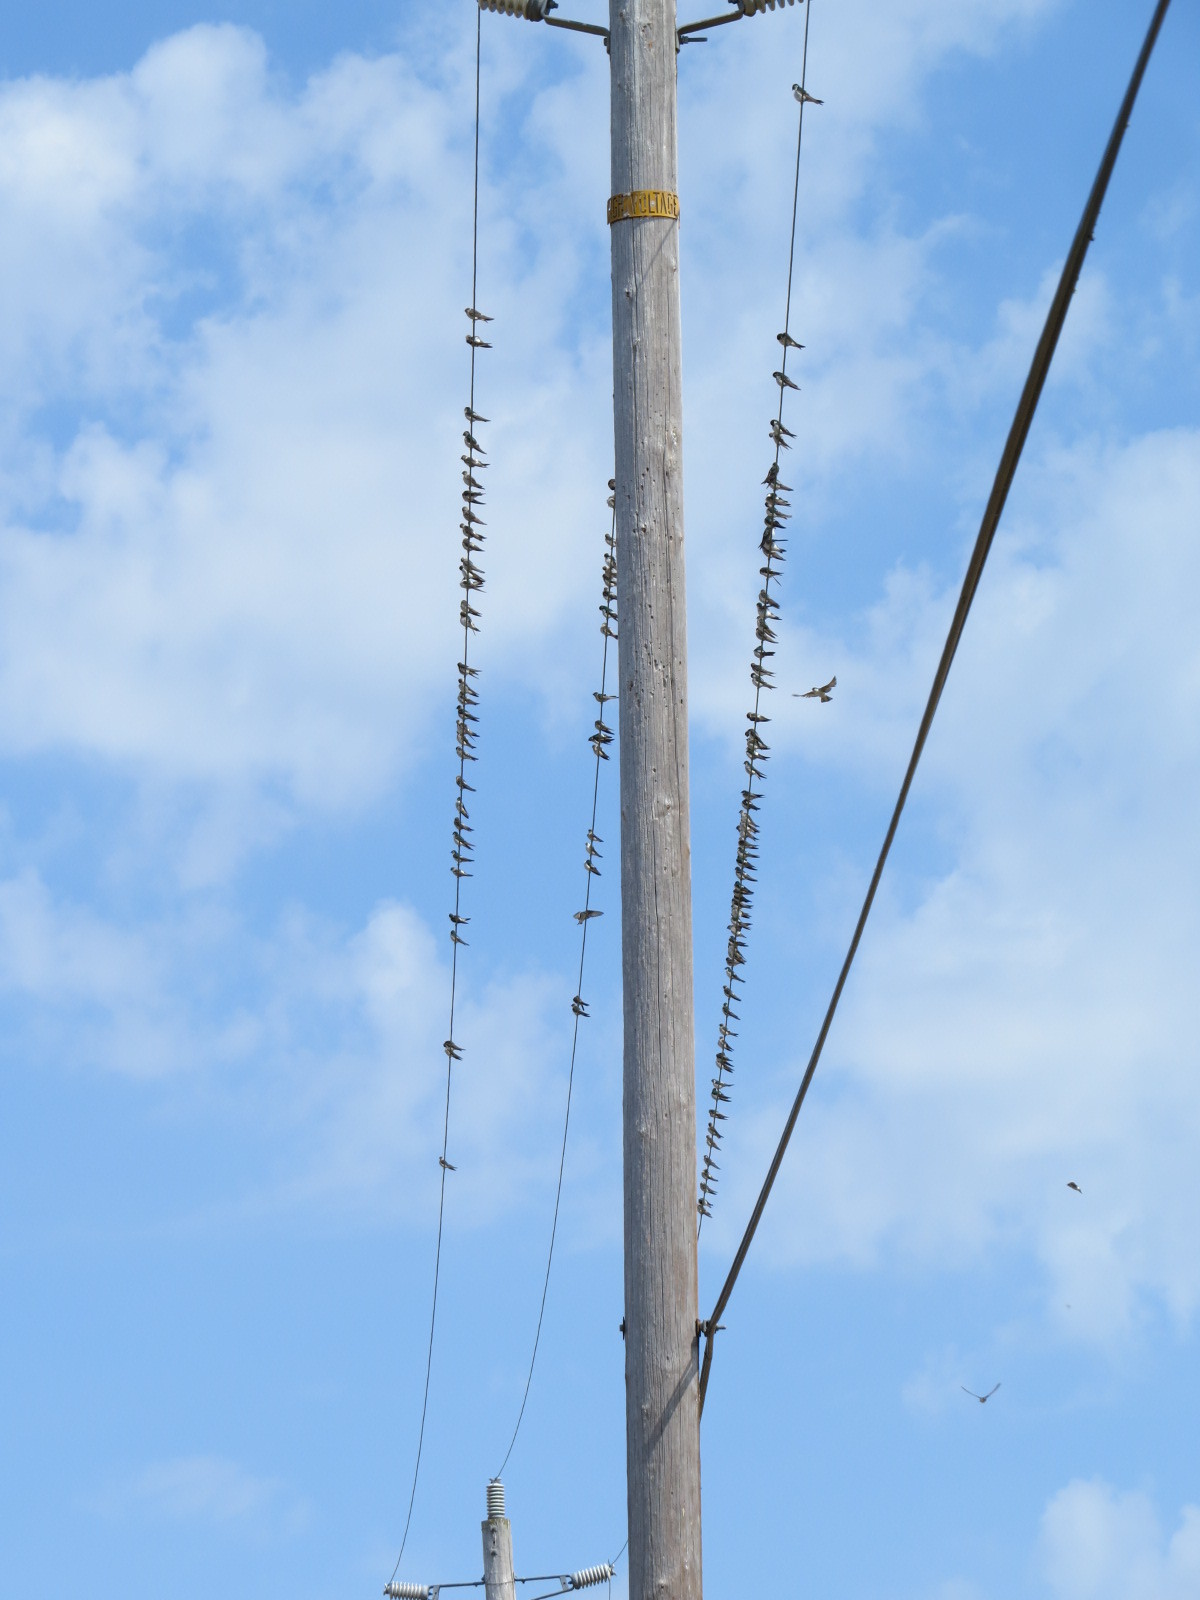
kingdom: Animalia
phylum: Chordata
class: Aves
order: Passeriformes
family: Hirundinidae
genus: Tachycineta
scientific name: Tachycineta thalassina
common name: Violet-green swallow
